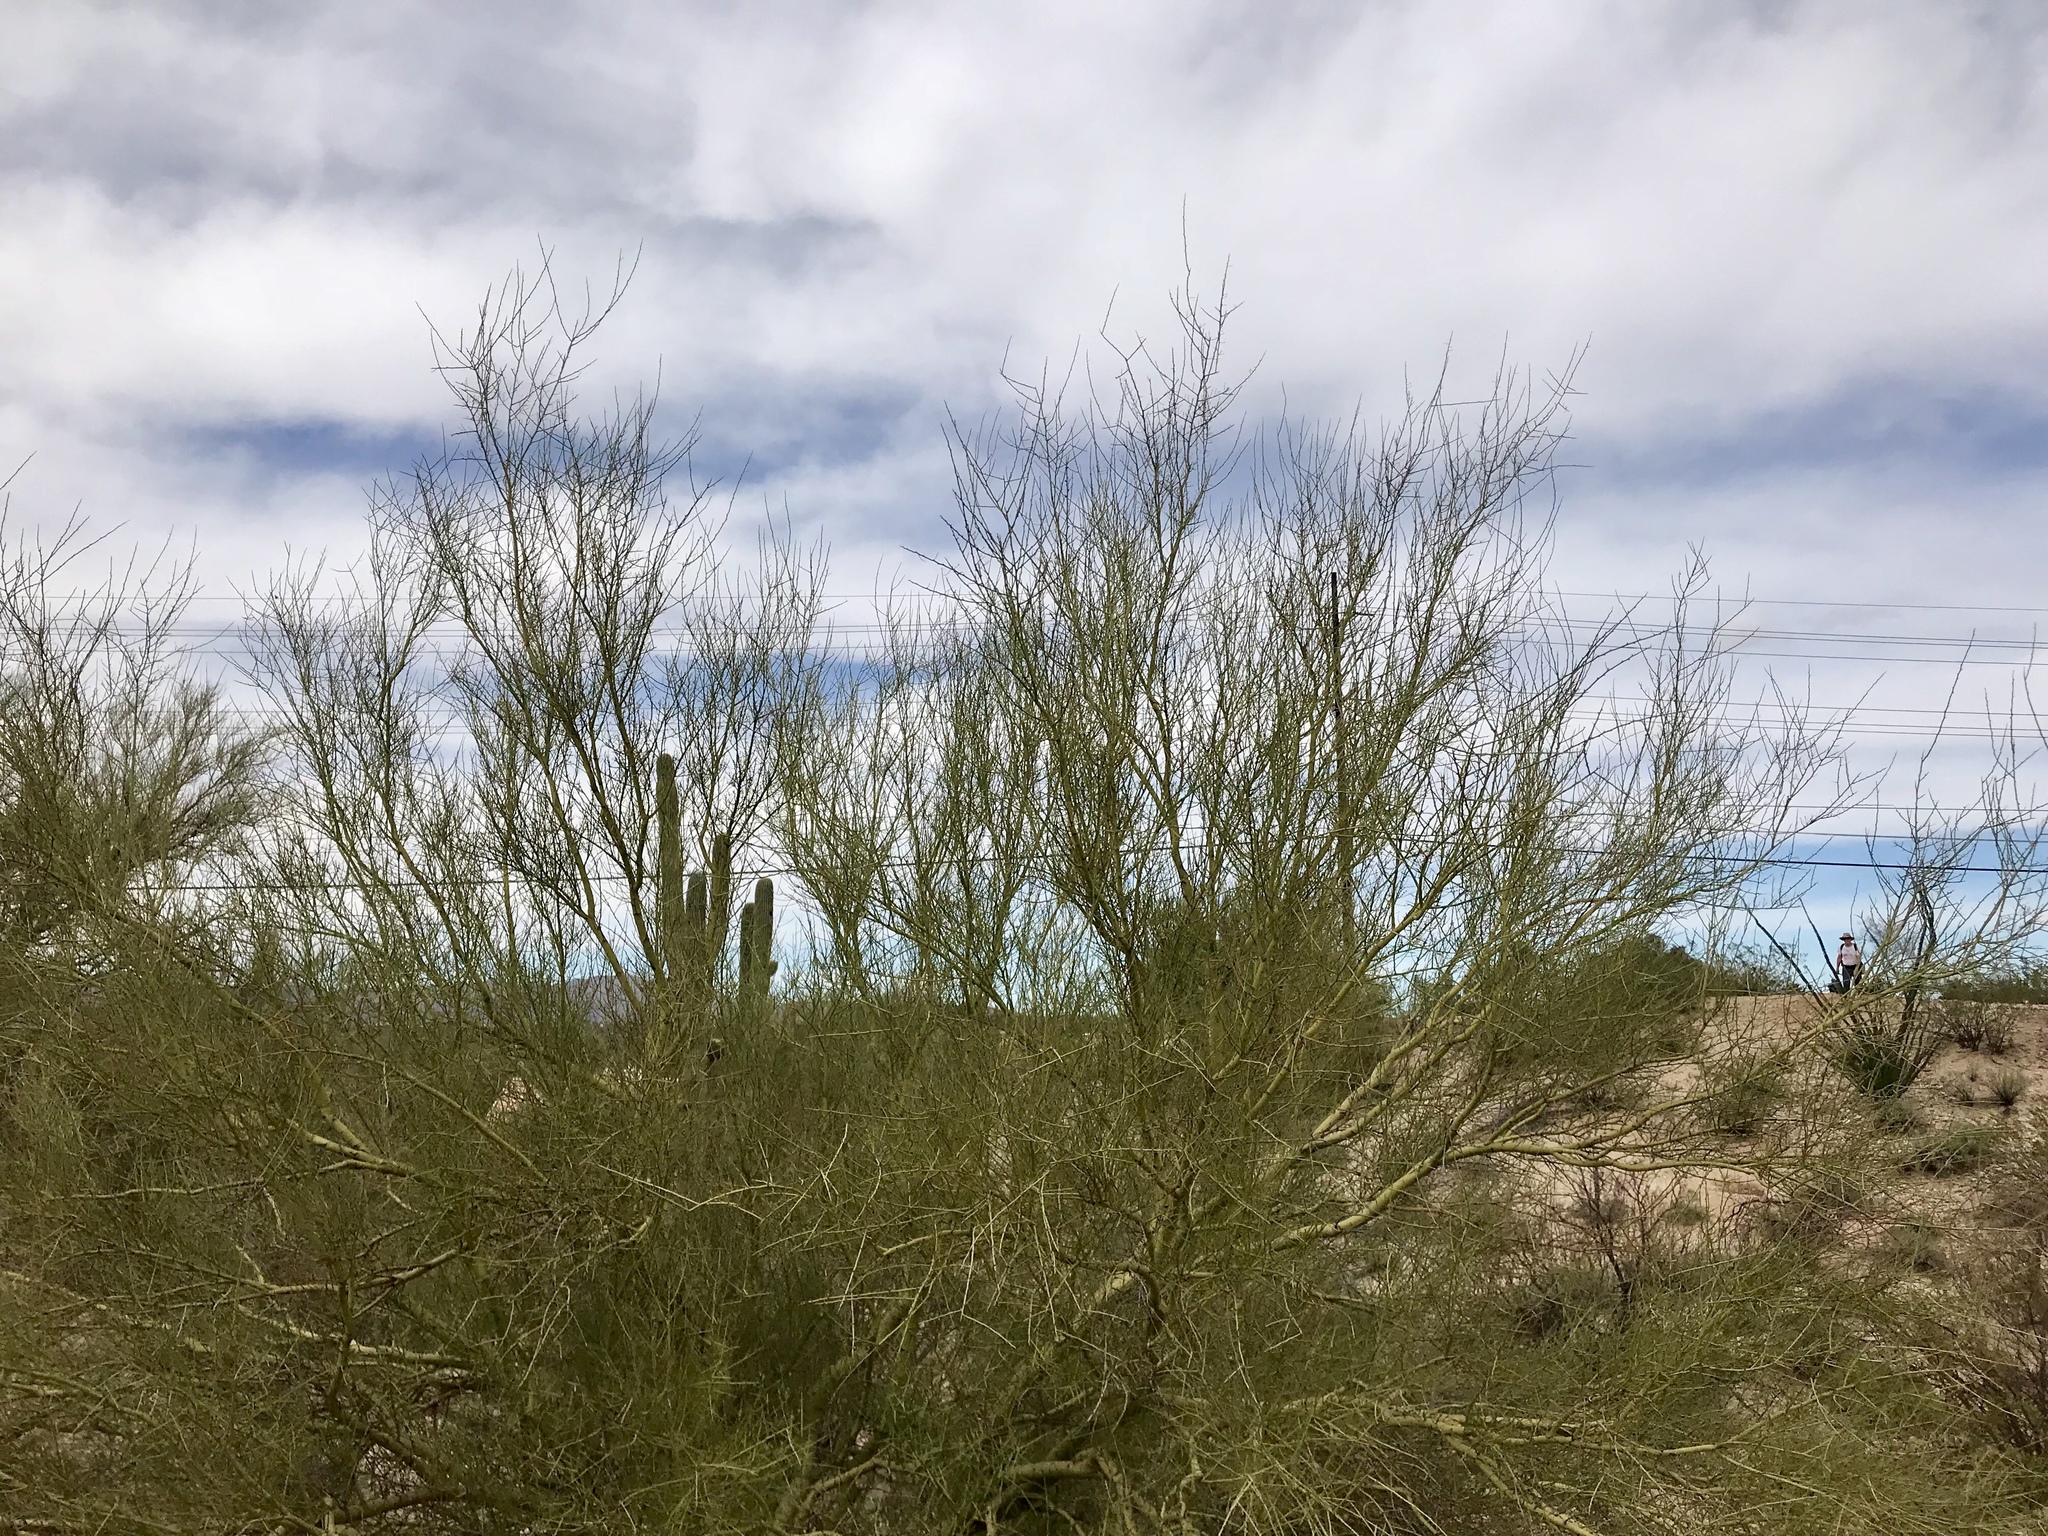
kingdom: Plantae
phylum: Tracheophyta
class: Magnoliopsida
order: Fabales
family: Fabaceae
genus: Parkinsonia
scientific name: Parkinsonia microphylla
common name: Yellow paloverde
